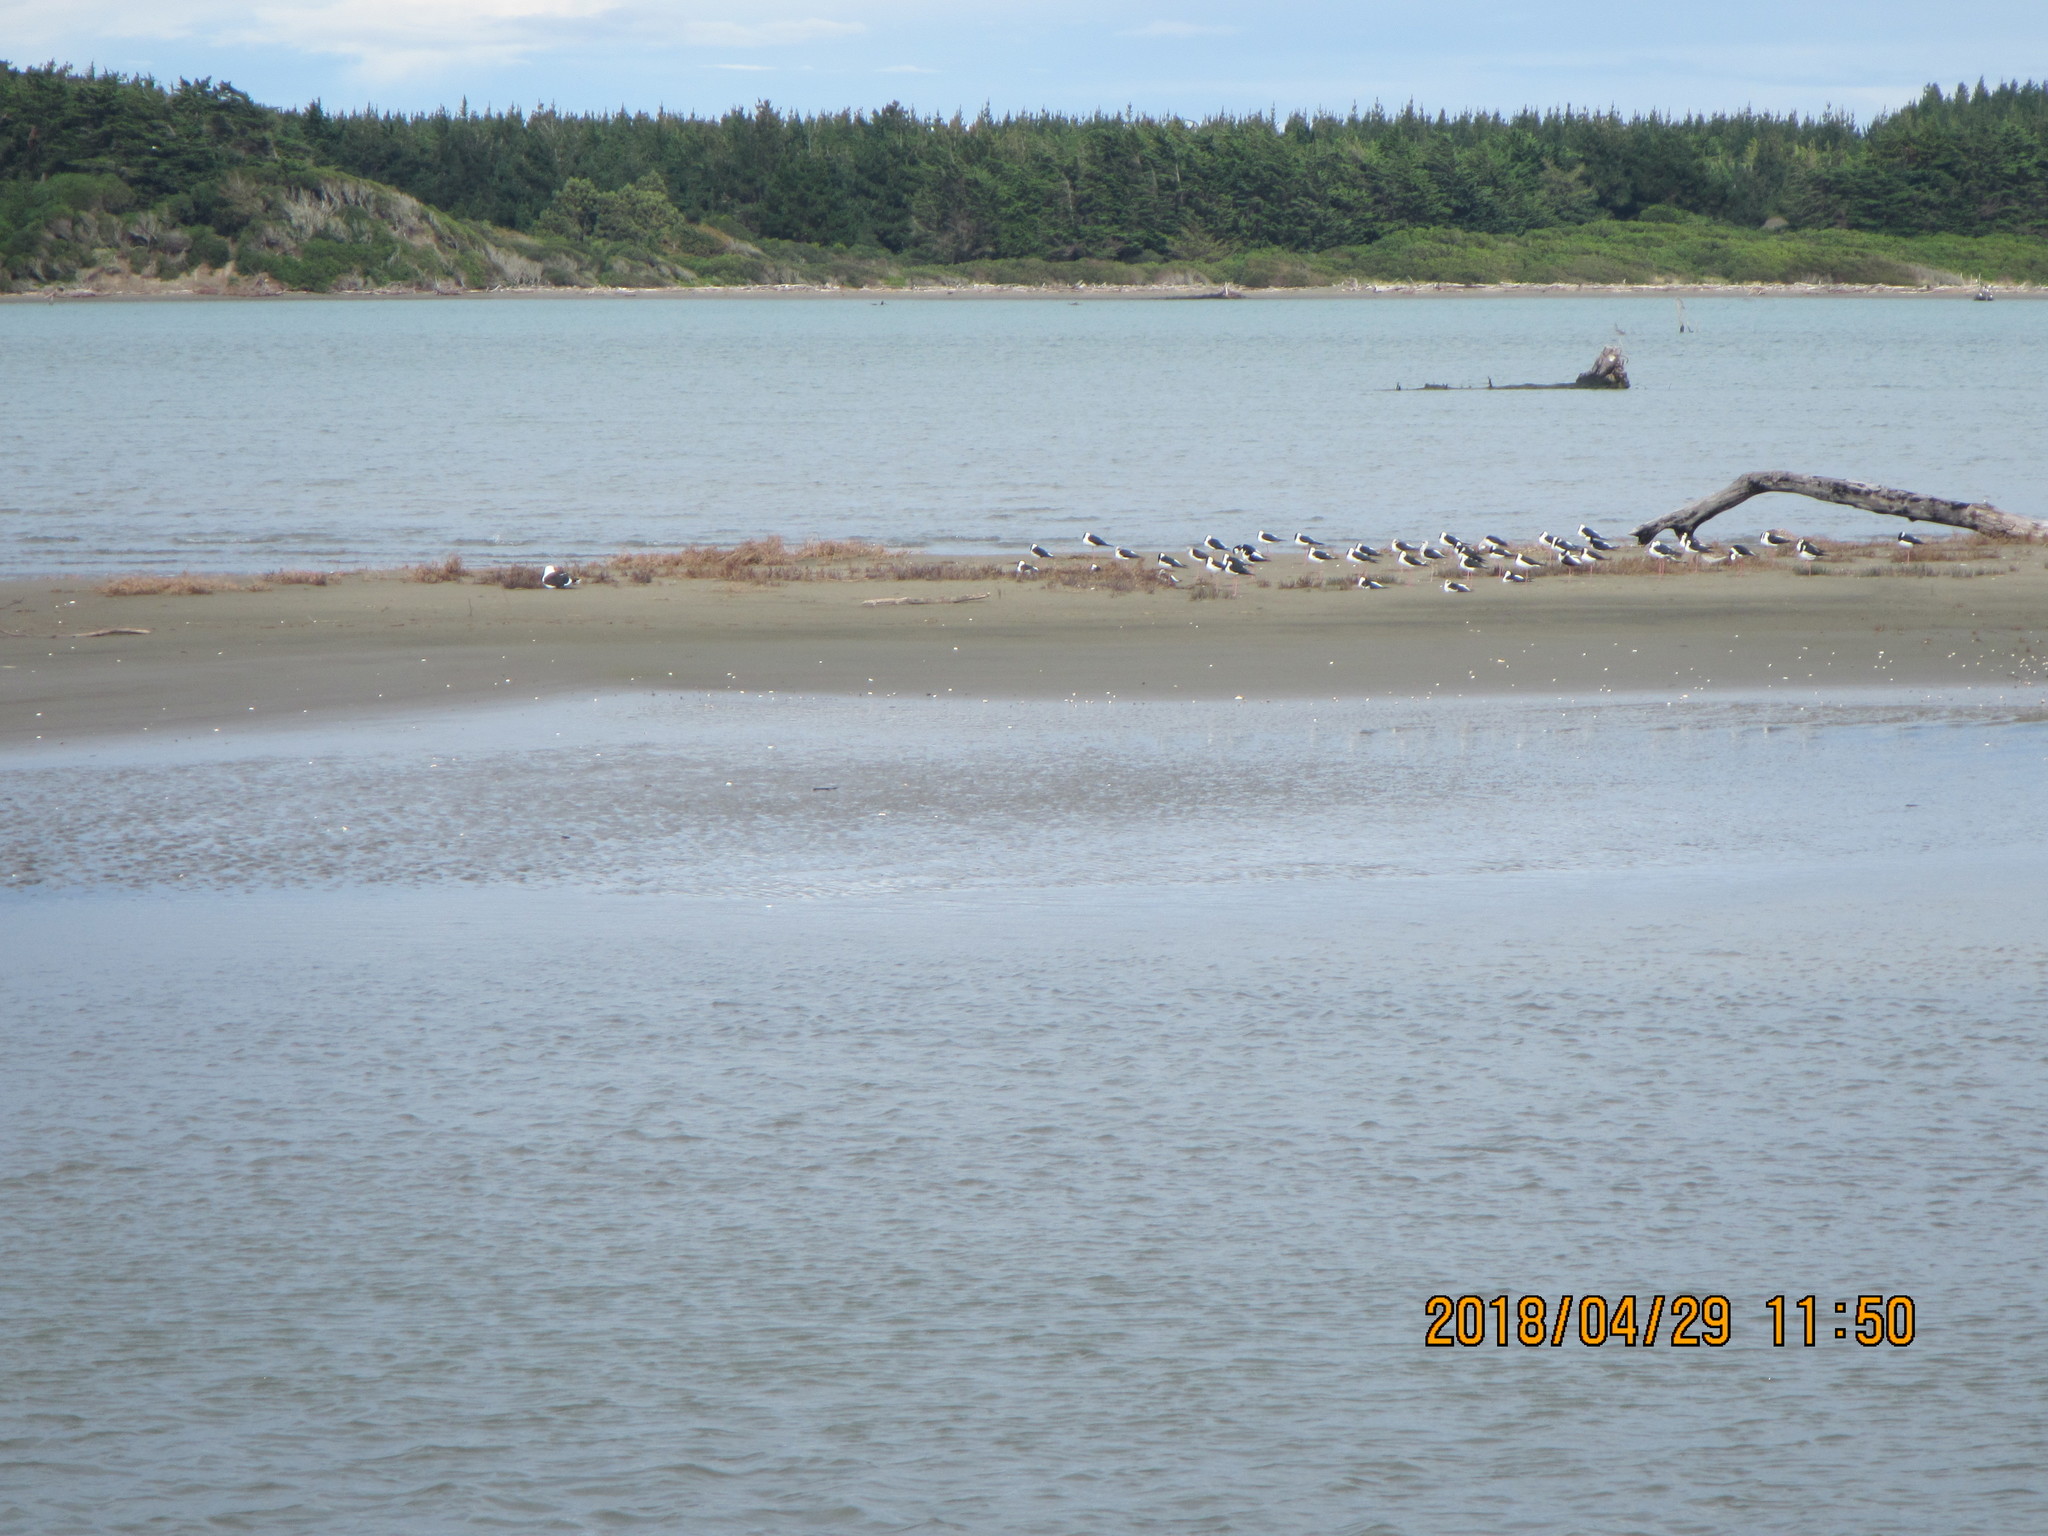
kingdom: Animalia
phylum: Chordata
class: Aves
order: Charadriiformes
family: Recurvirostridae
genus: Himantopus
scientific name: Himantopus leucocephalus
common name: White-headed stilt
